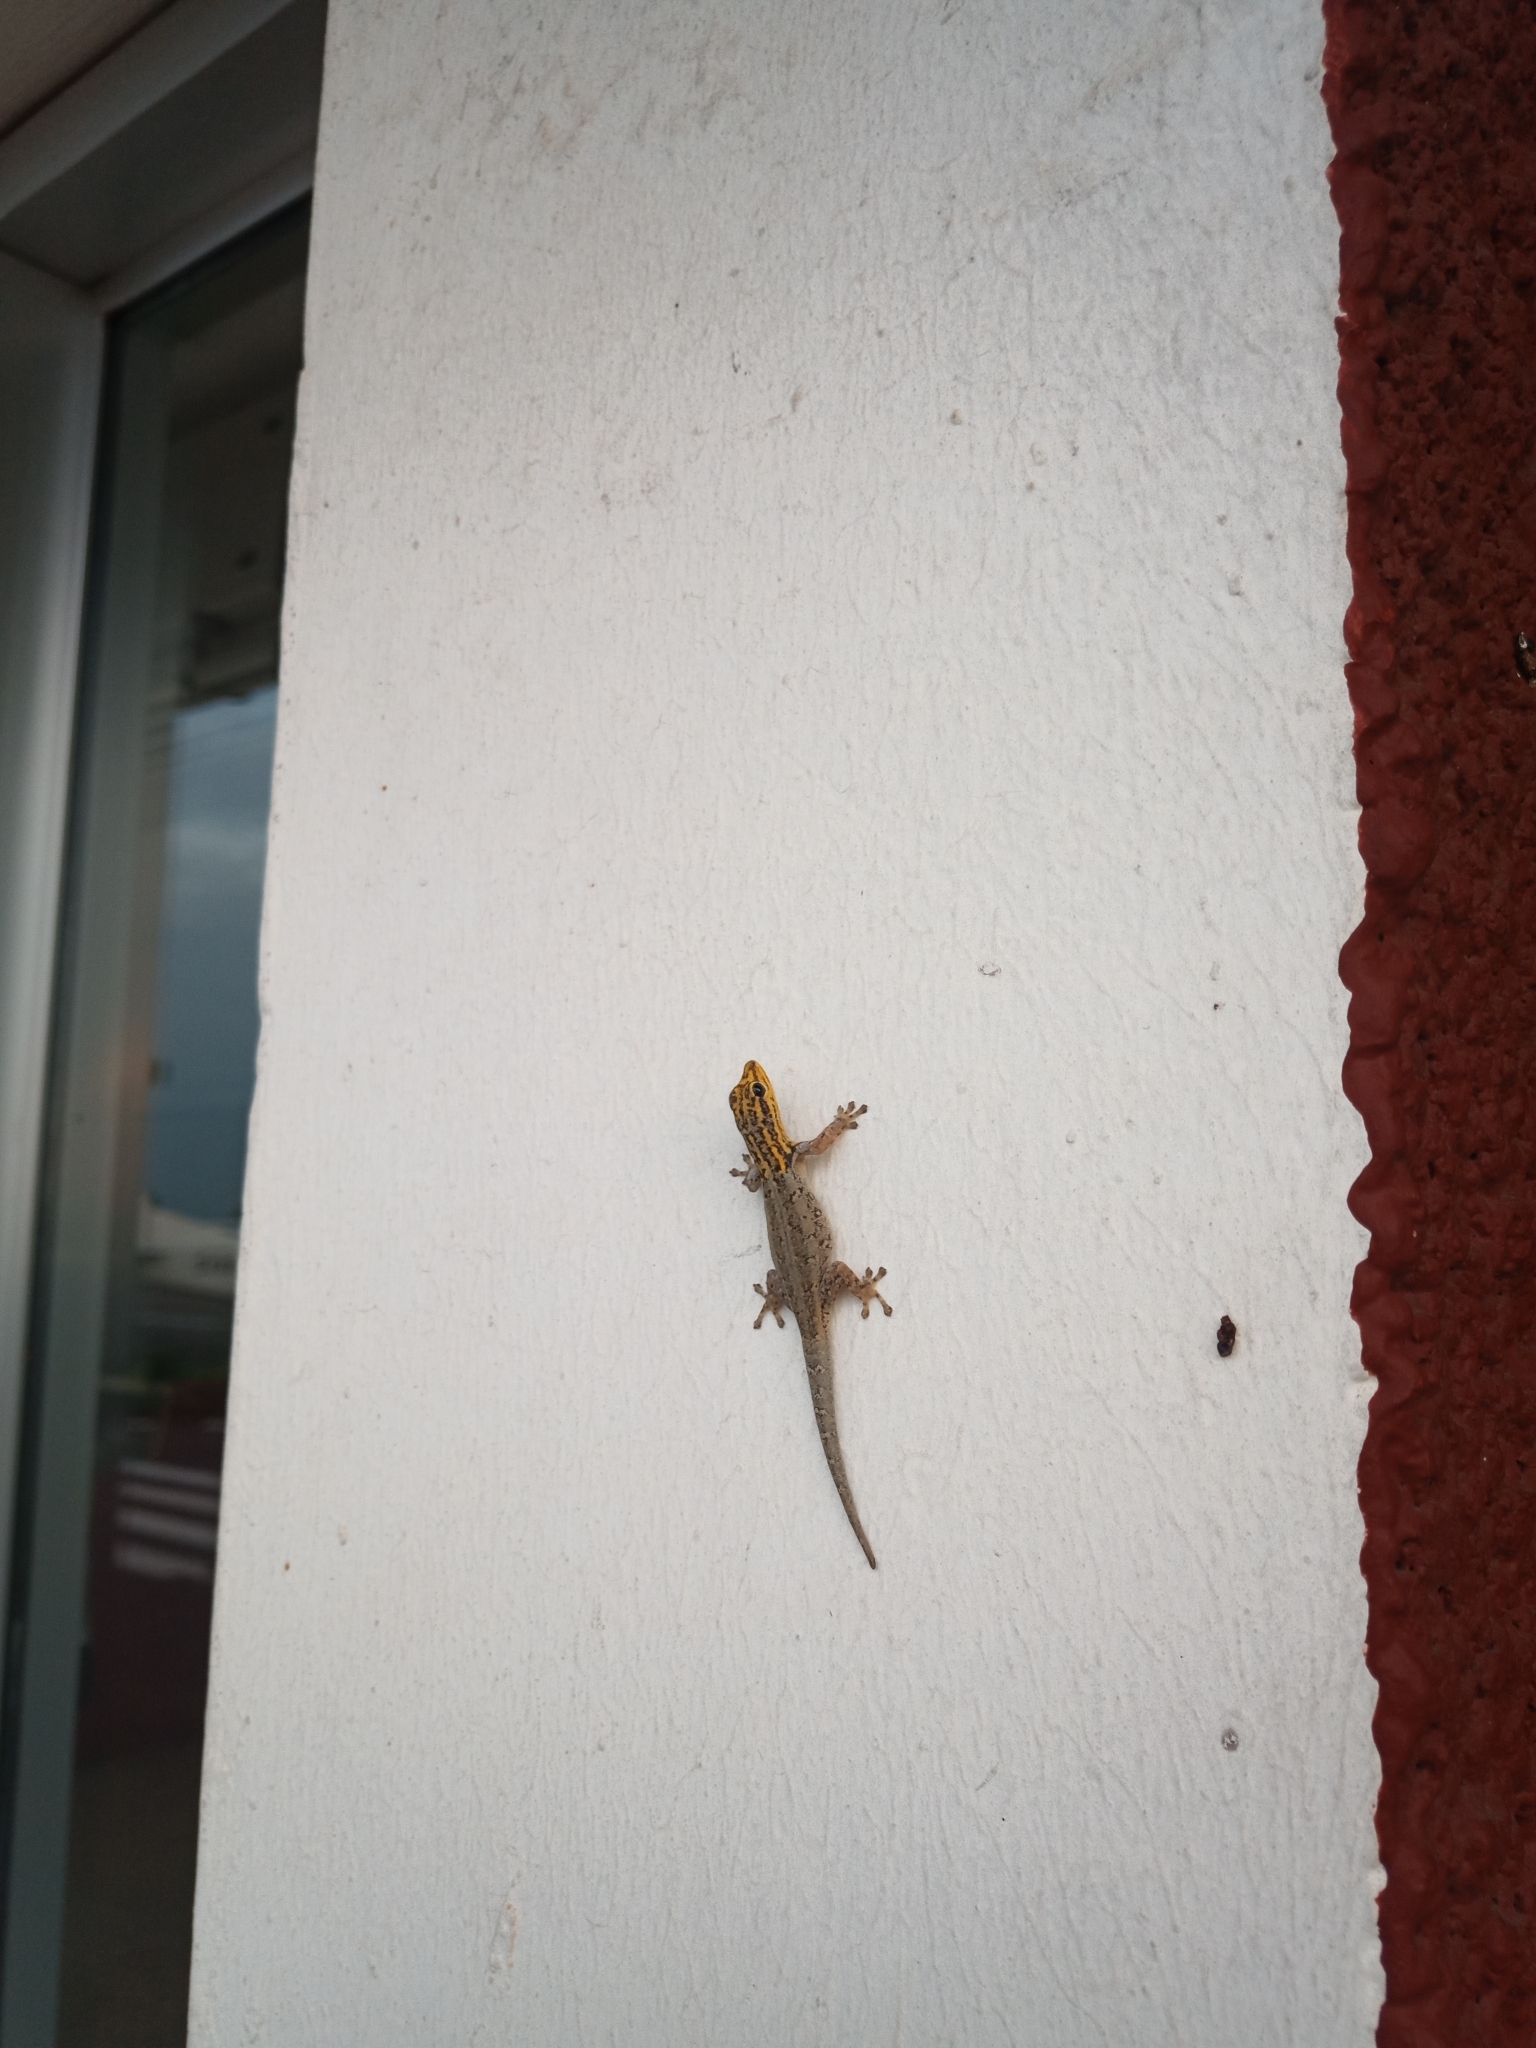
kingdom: Animalia
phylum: Chordata
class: Squamata
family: Gekkonidae
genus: Lygodactylus
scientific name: Lygodactylus picturatus
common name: Painted dwarf gecko
